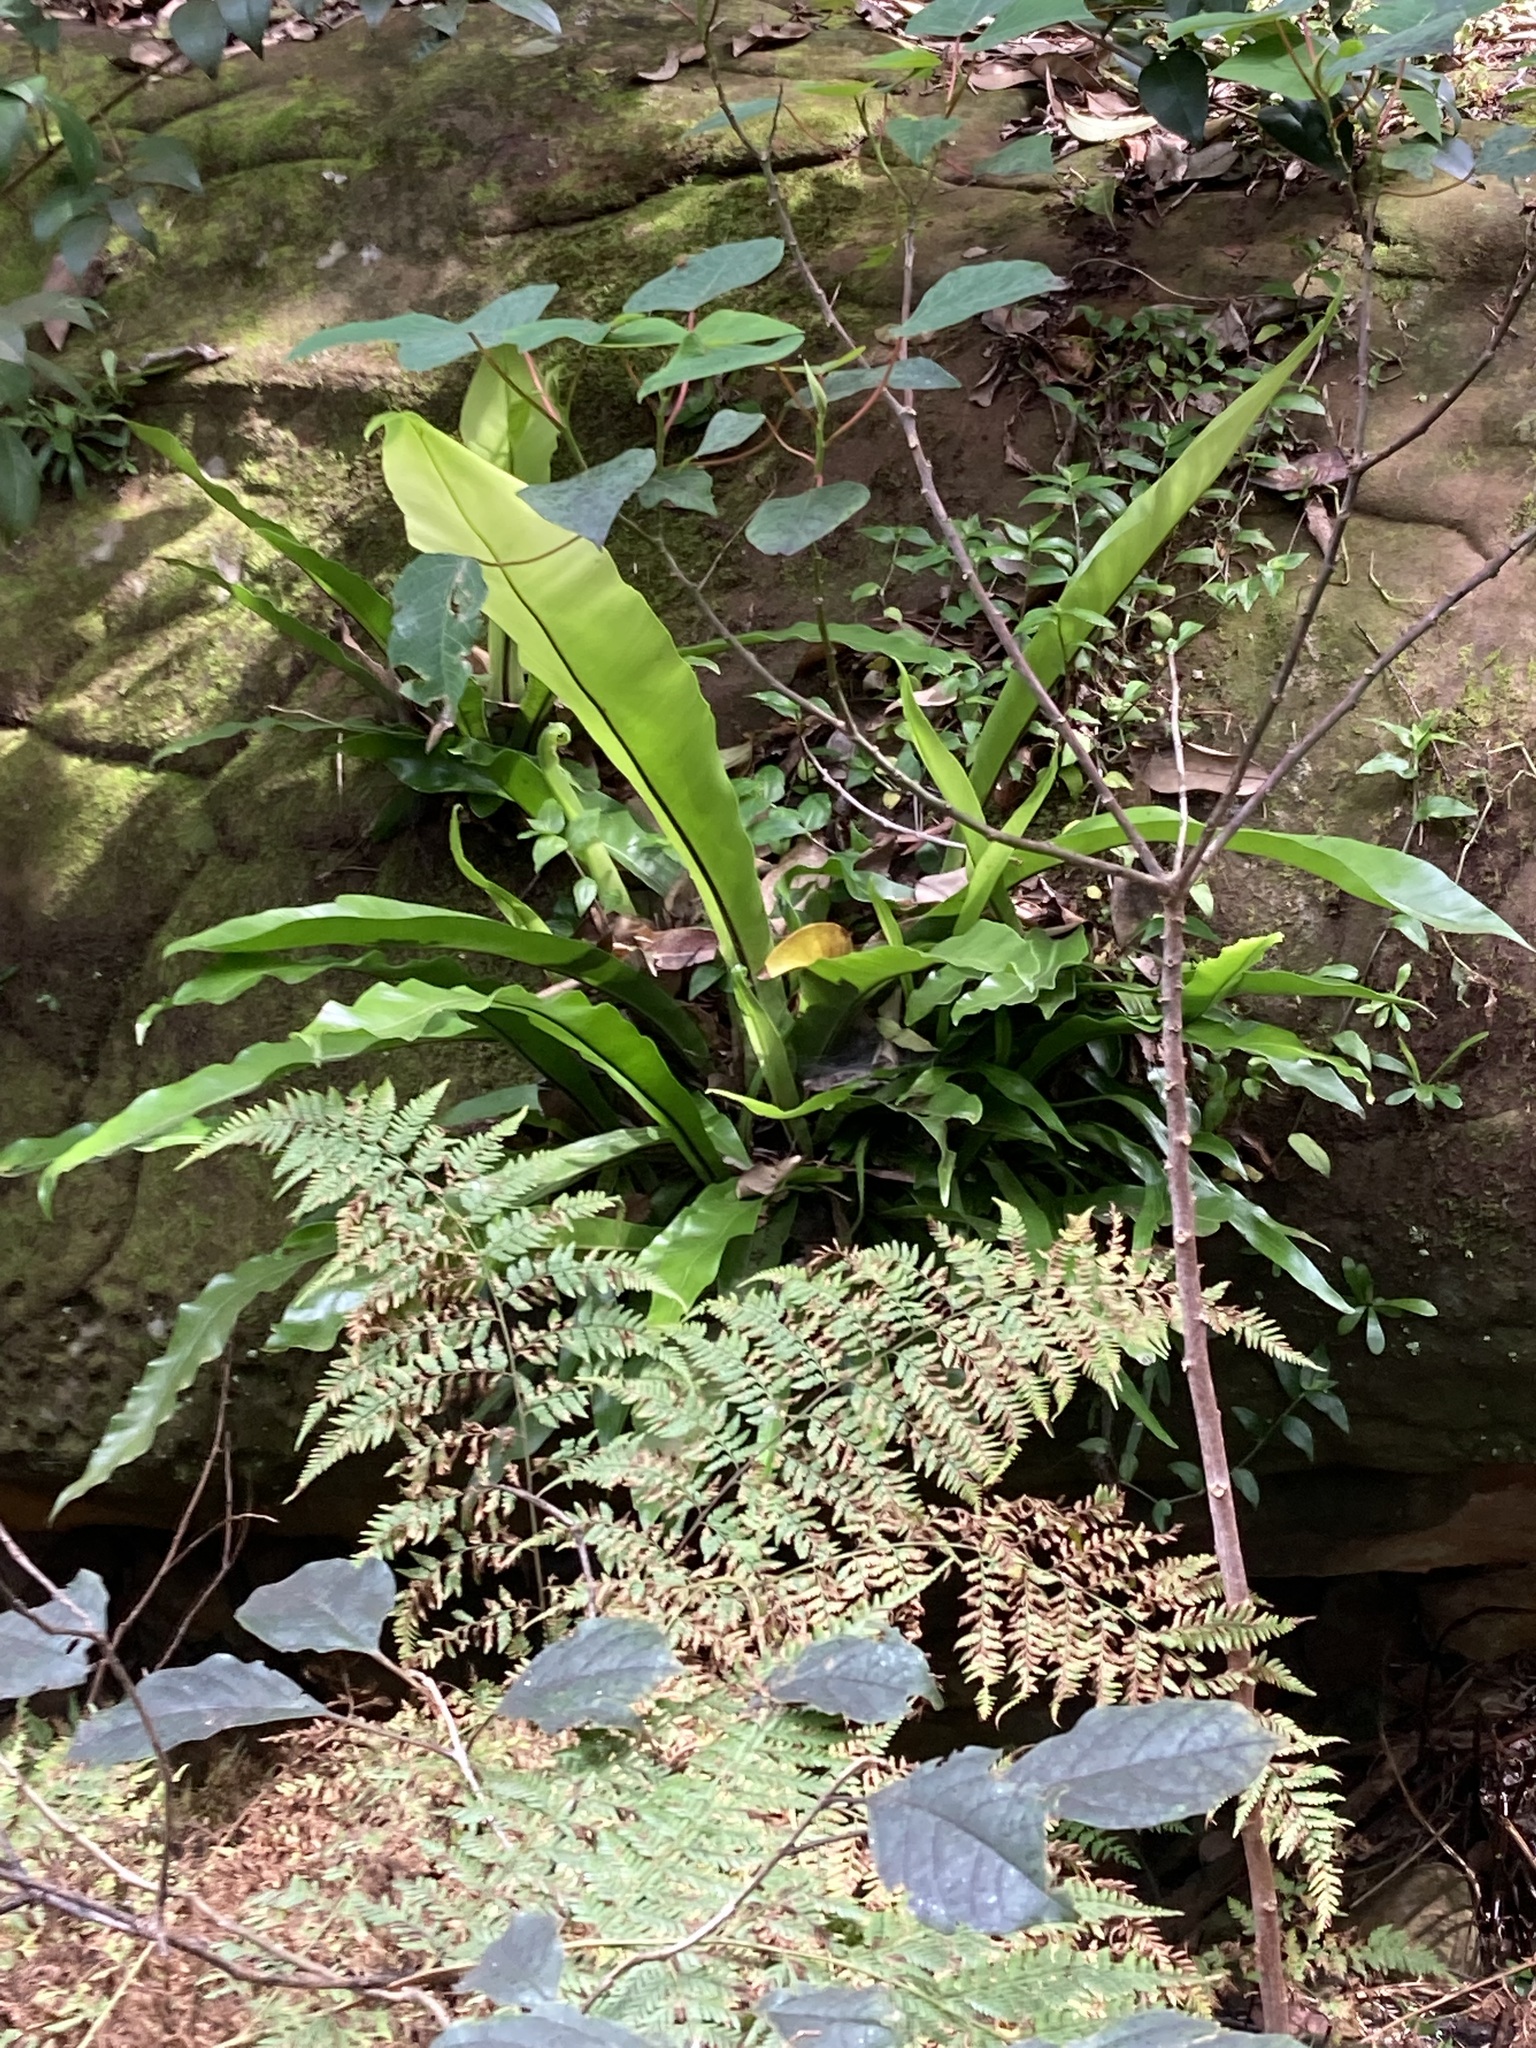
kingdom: Plantae
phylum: Tracheophyta
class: Polypodiopsida
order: Polypodiales
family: Aspleniaceae
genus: Asplenium
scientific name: Asplenium australasicum
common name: Bird's-nest fern
